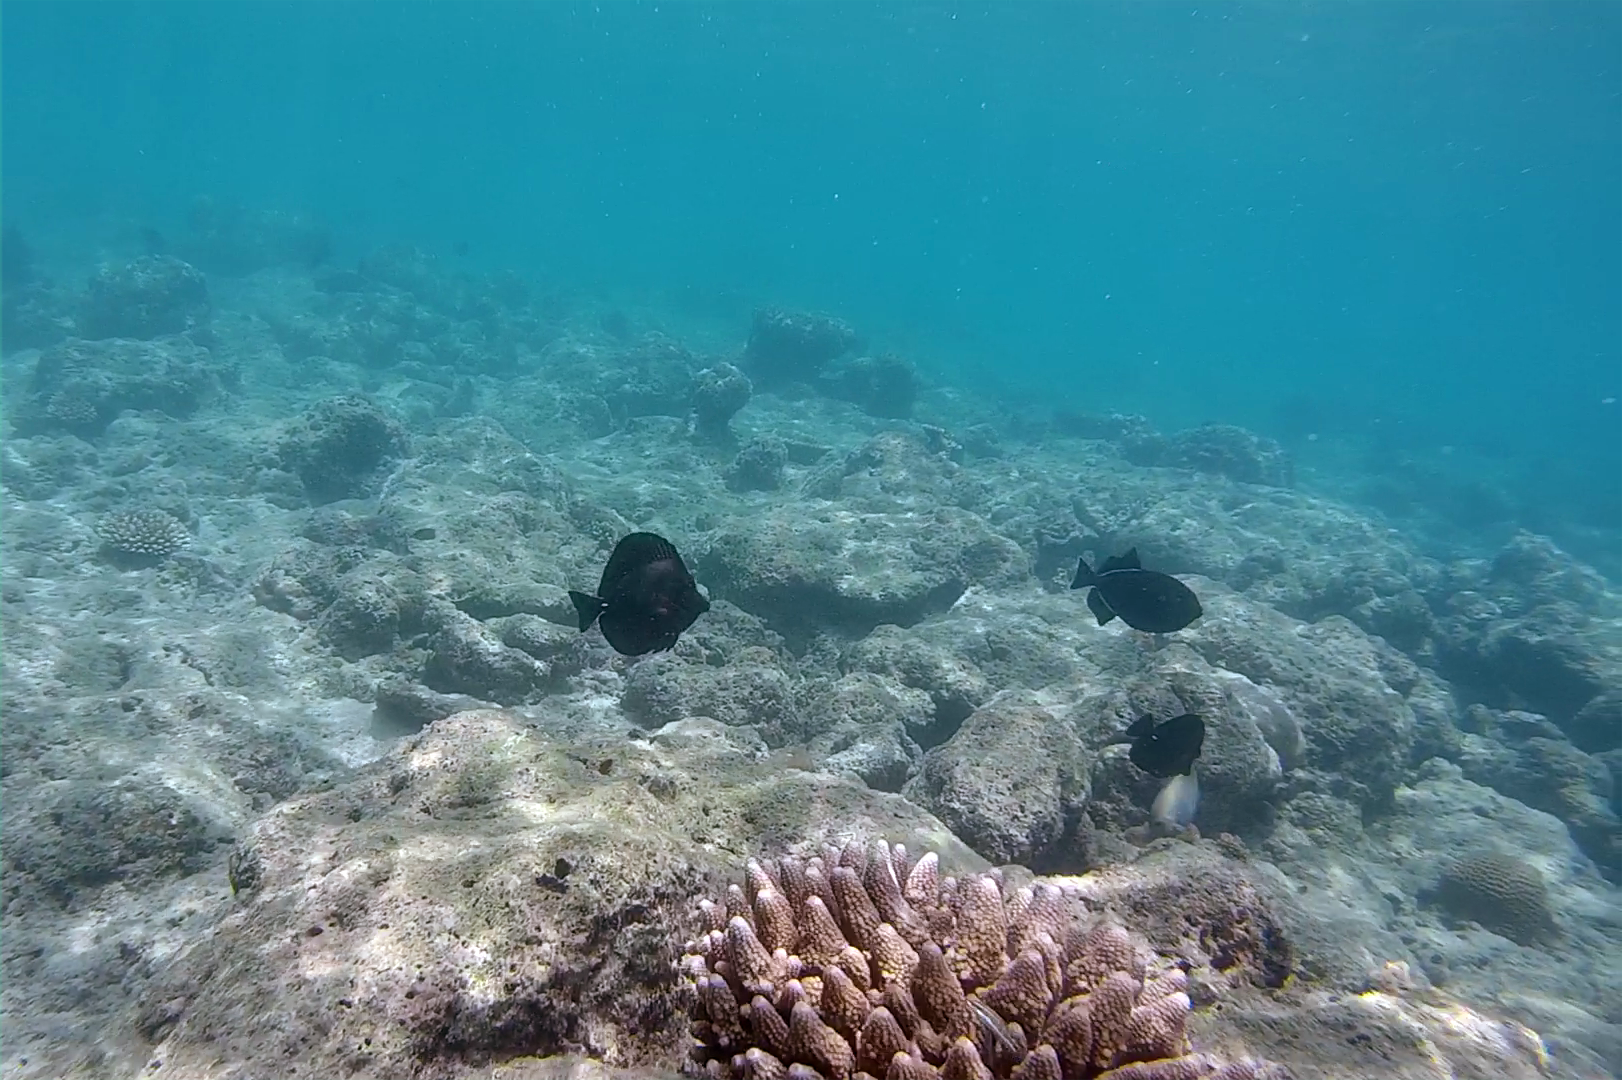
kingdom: Animalia
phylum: Chordata
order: Perciformes
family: Acanthuridae
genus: Zebrasoma
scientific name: Zebrasoma scopas
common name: Twotone tang
